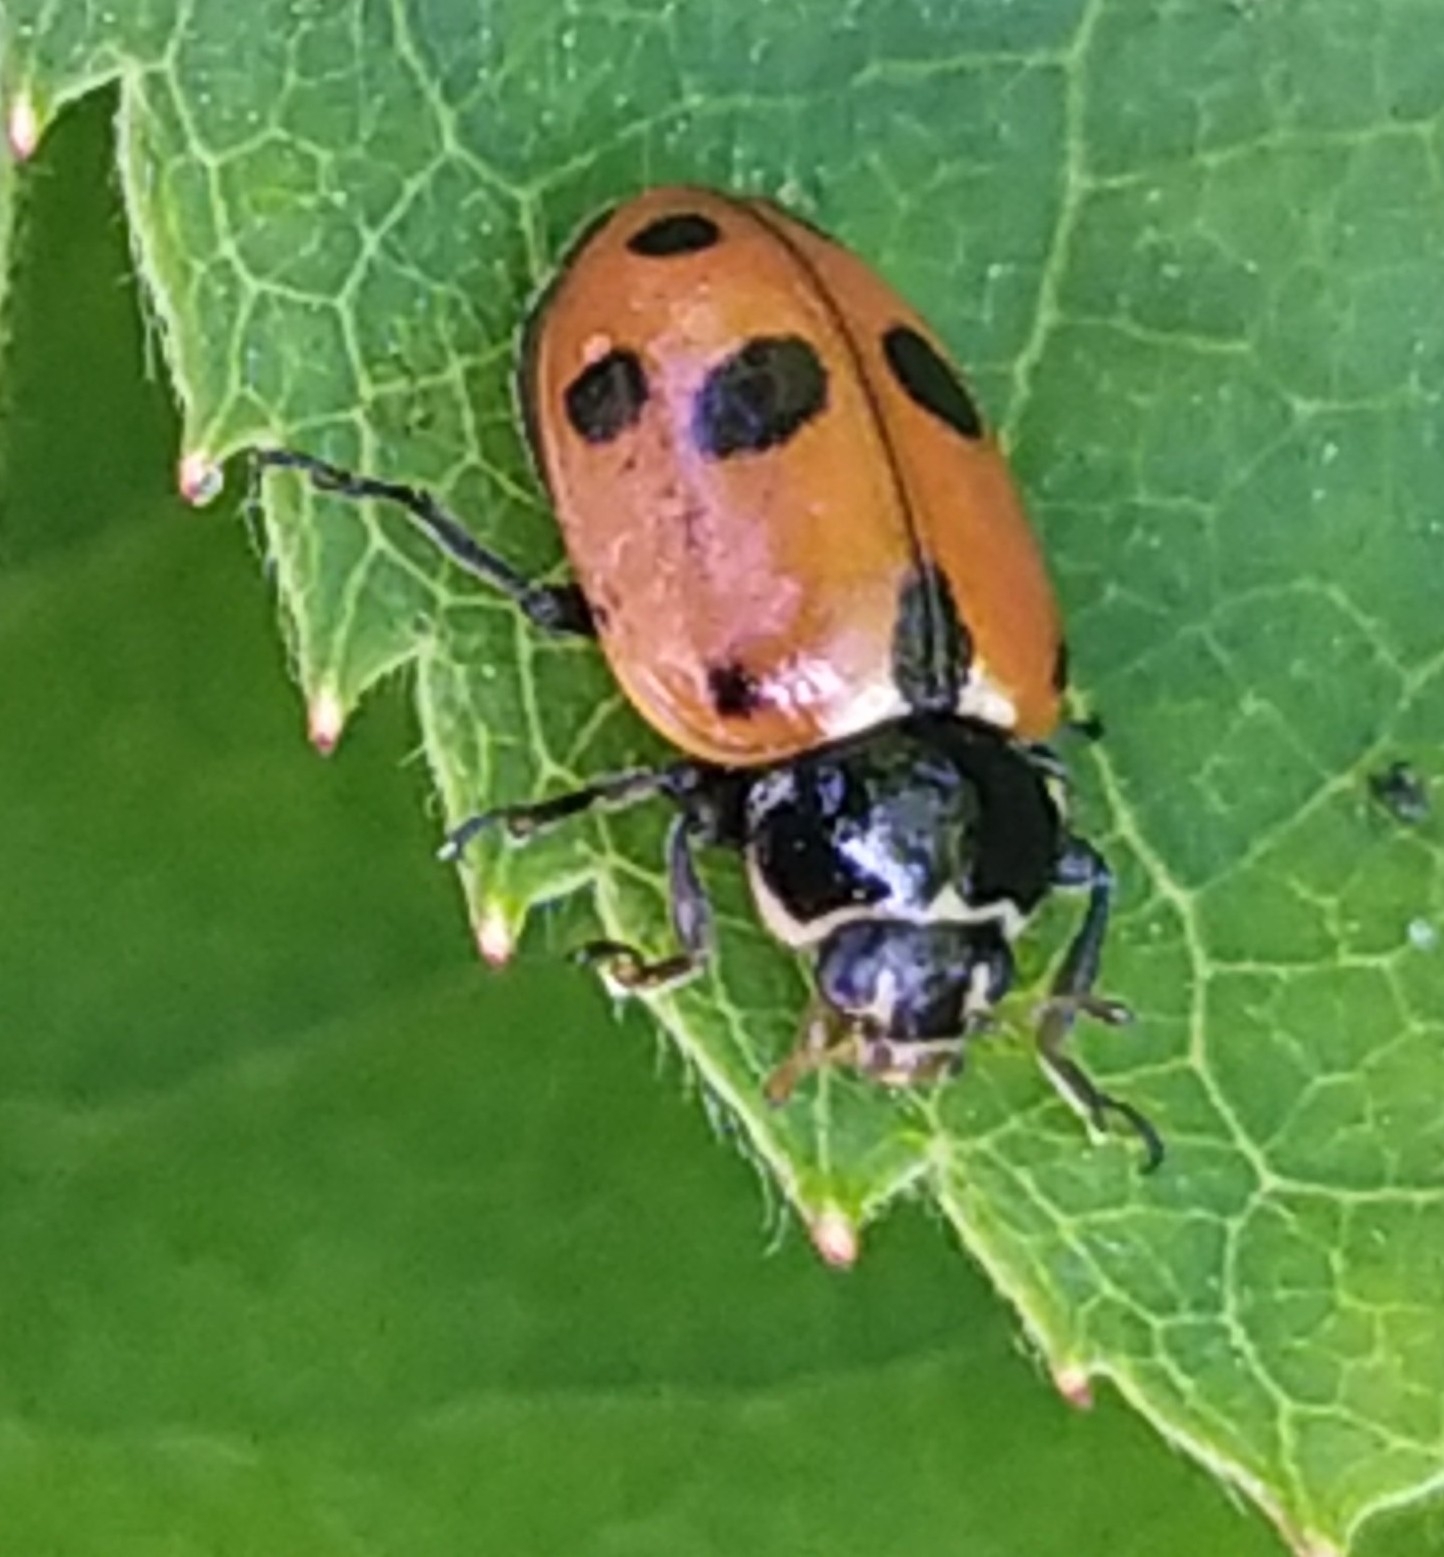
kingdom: Animalia
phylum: Arthropoda
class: Insecta
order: Coleoptera
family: Coccinellidae
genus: Hippodamia
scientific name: Hippodamia variegata
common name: Ladybird beetle
